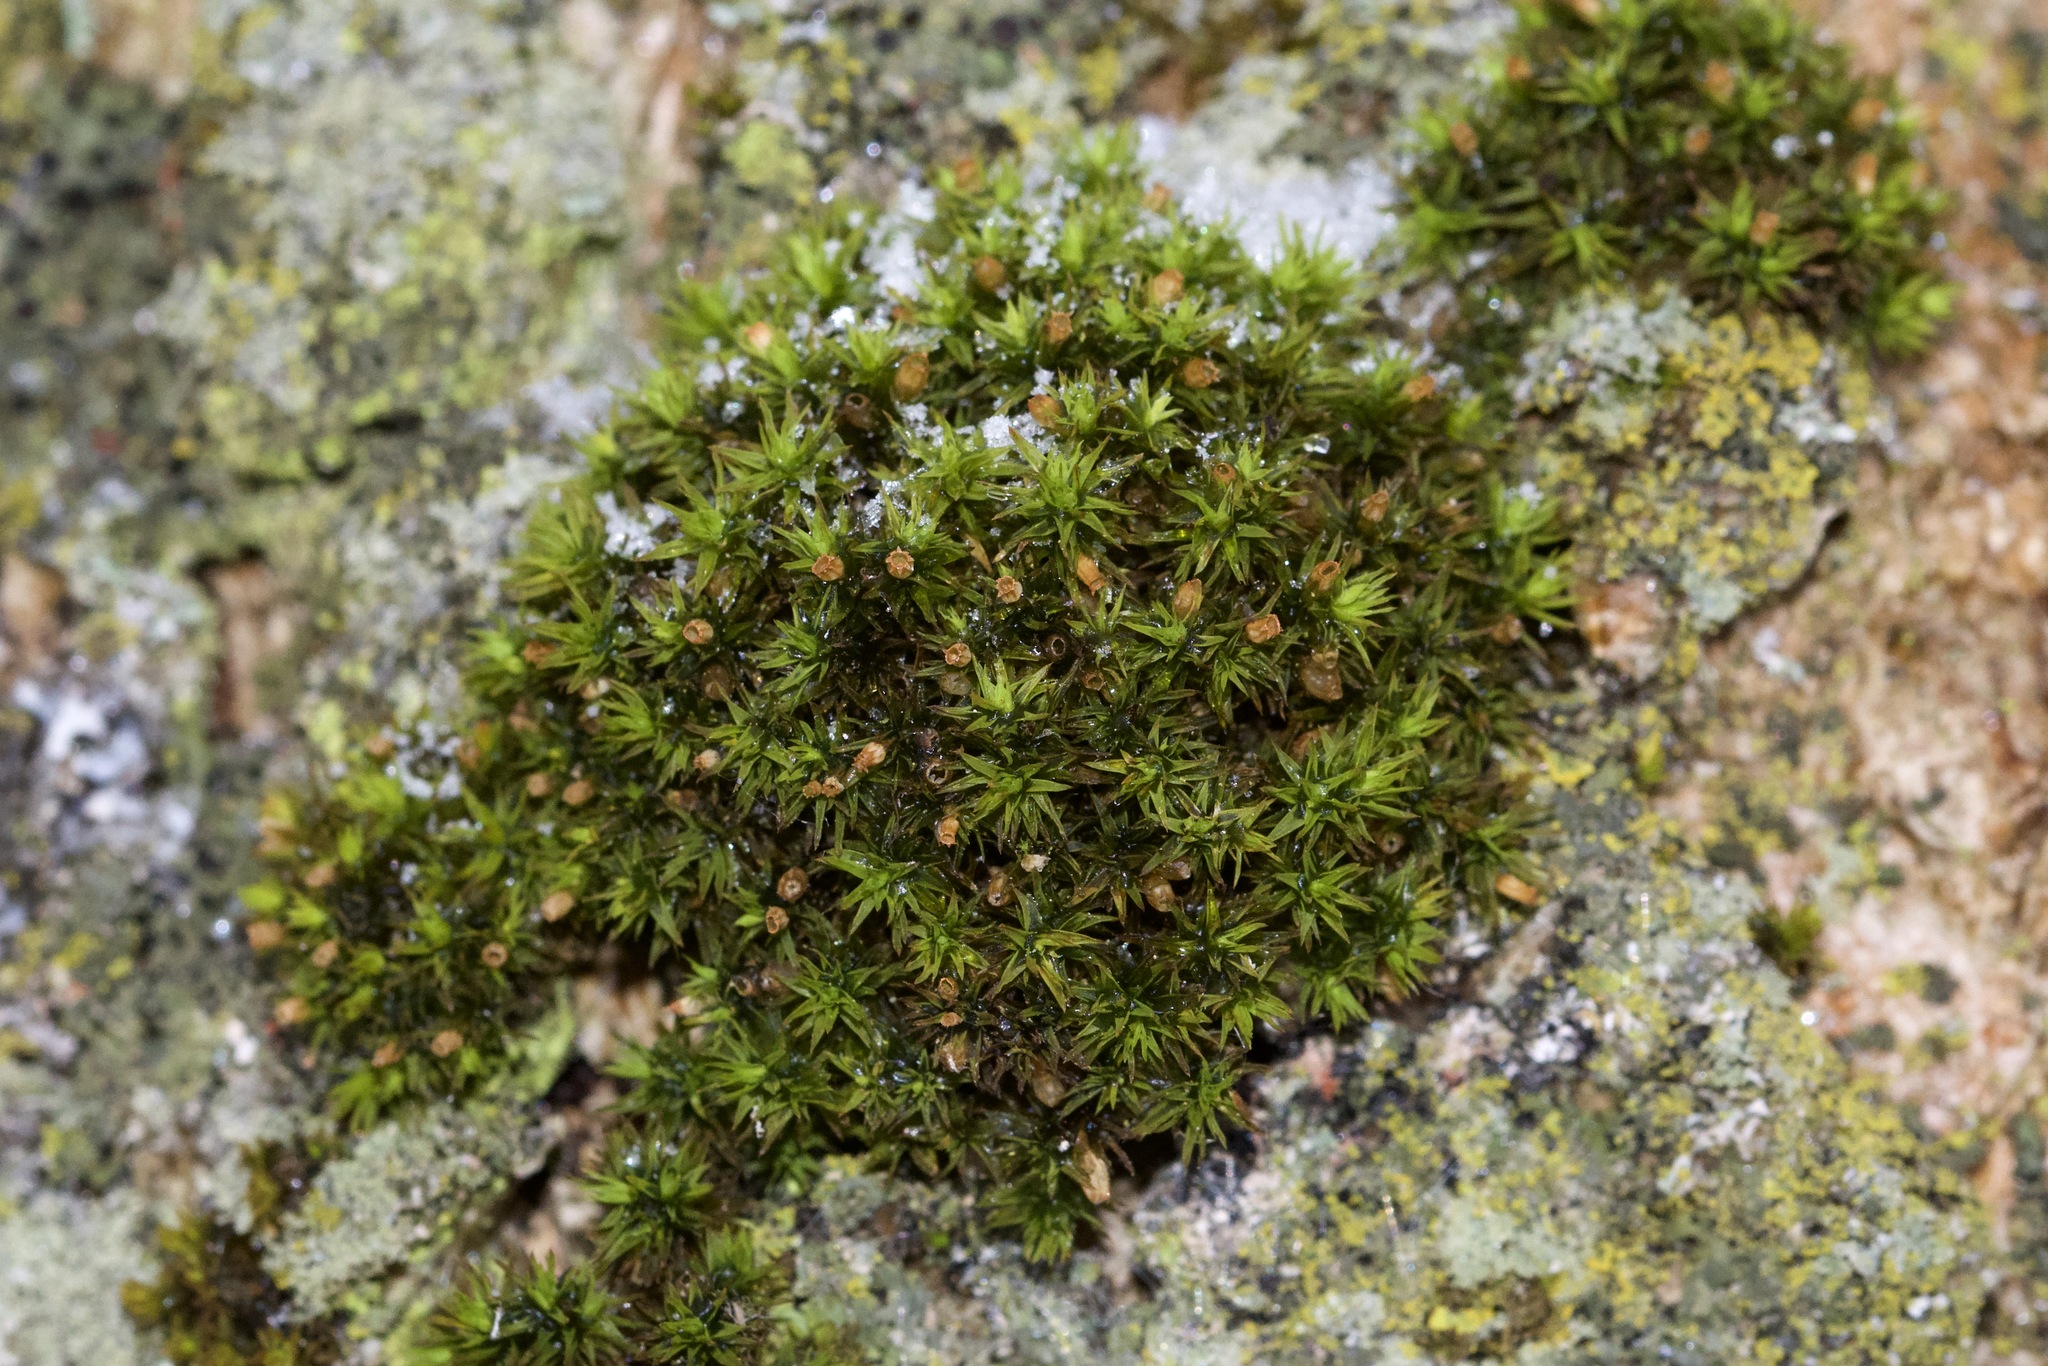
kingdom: Plantae
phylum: Bryophyta
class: Bryopsida
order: Orthotrichales
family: Orthotrichaceae
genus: Orthotrichum
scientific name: Orthotrichum stellatum
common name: Starlike bristle moss
